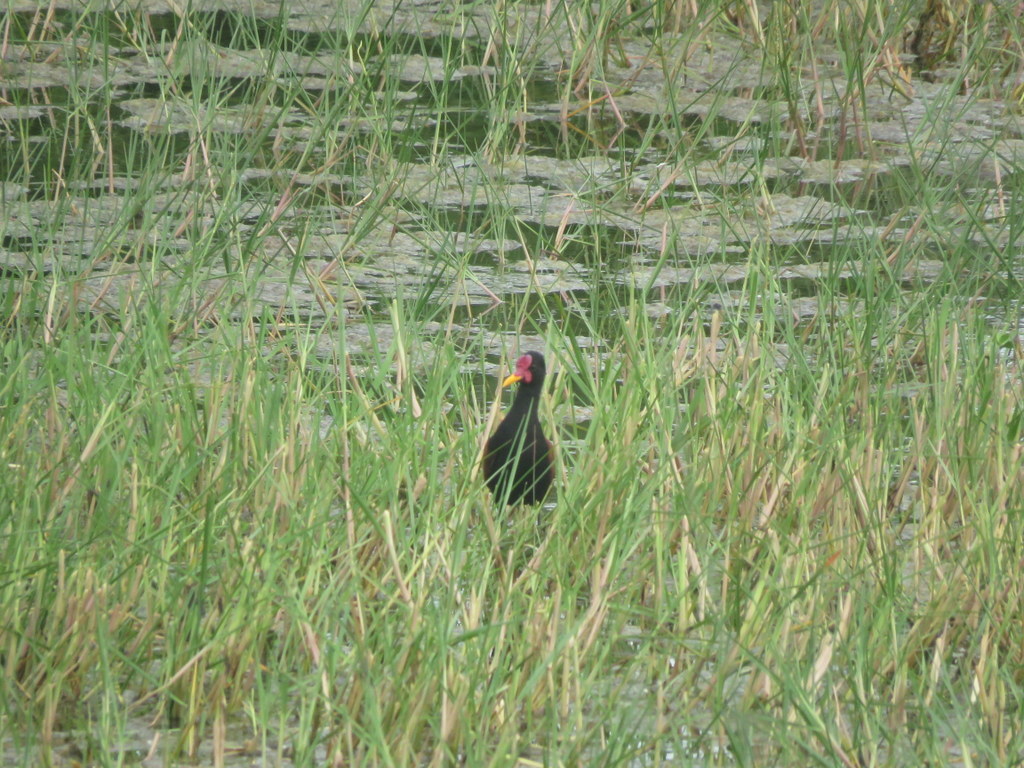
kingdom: Animalia
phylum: Chordata
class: Aves
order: Charadriiformes
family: Jacanidae
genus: Jacana
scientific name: Jacana jacana
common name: Wattled jacana
